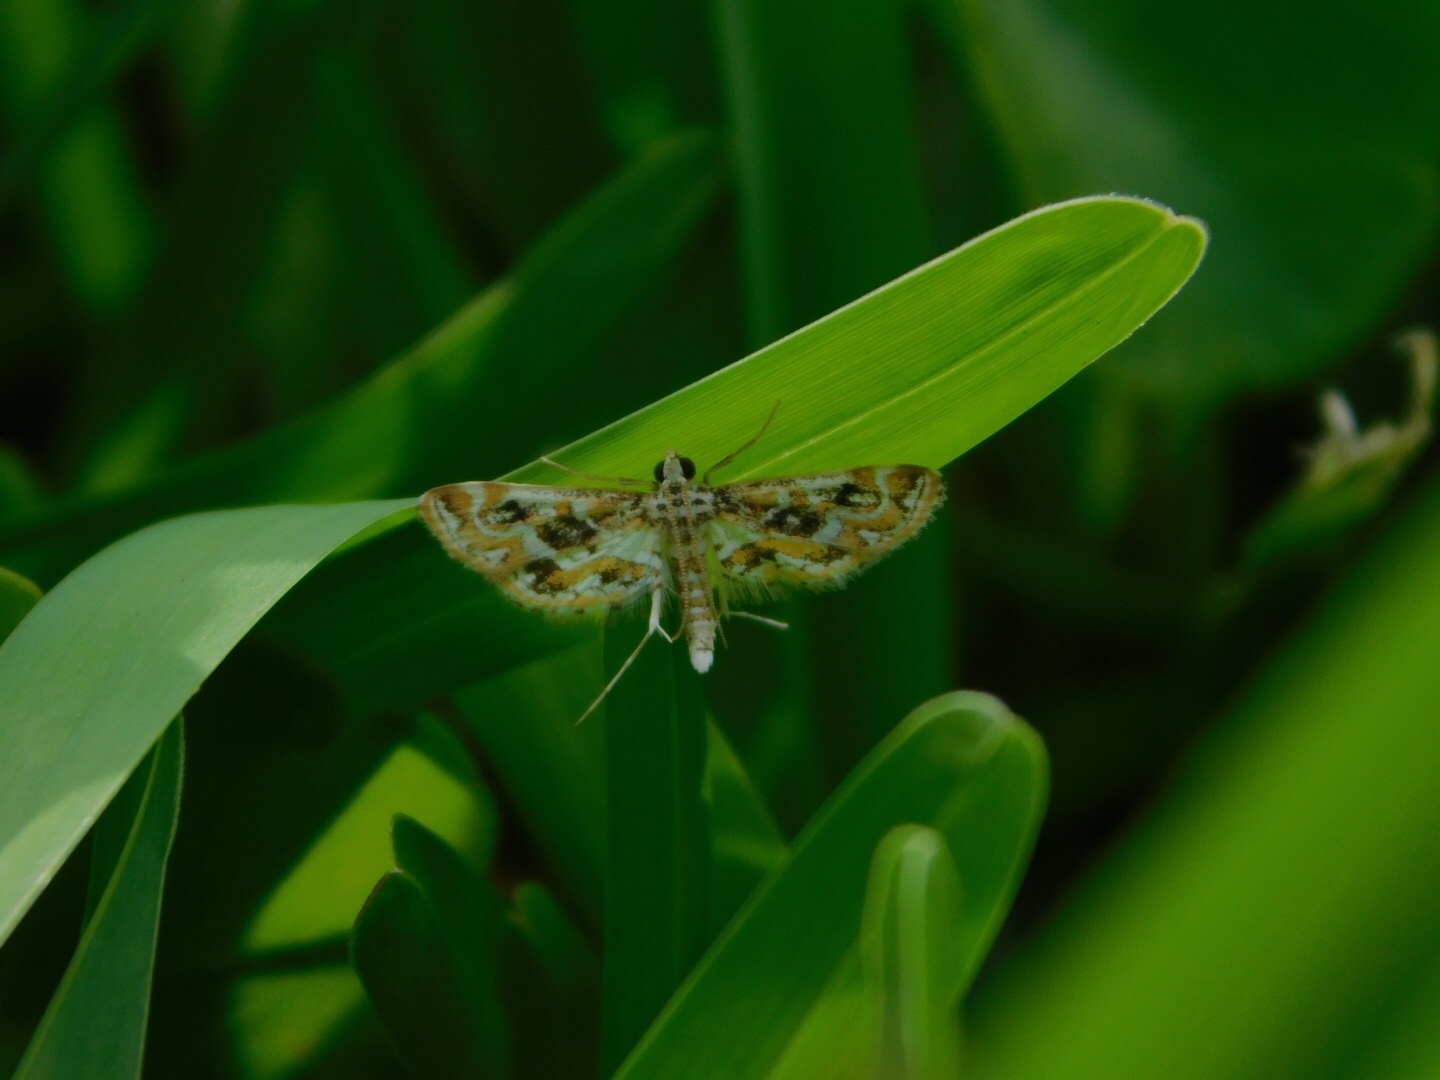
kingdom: Animalia
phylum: Arthropoda
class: Insecta
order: Lepidoptera
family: Crambidae
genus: Parapoynx
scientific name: Parapoynx diminutalis
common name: Hydrilla leafcutter
